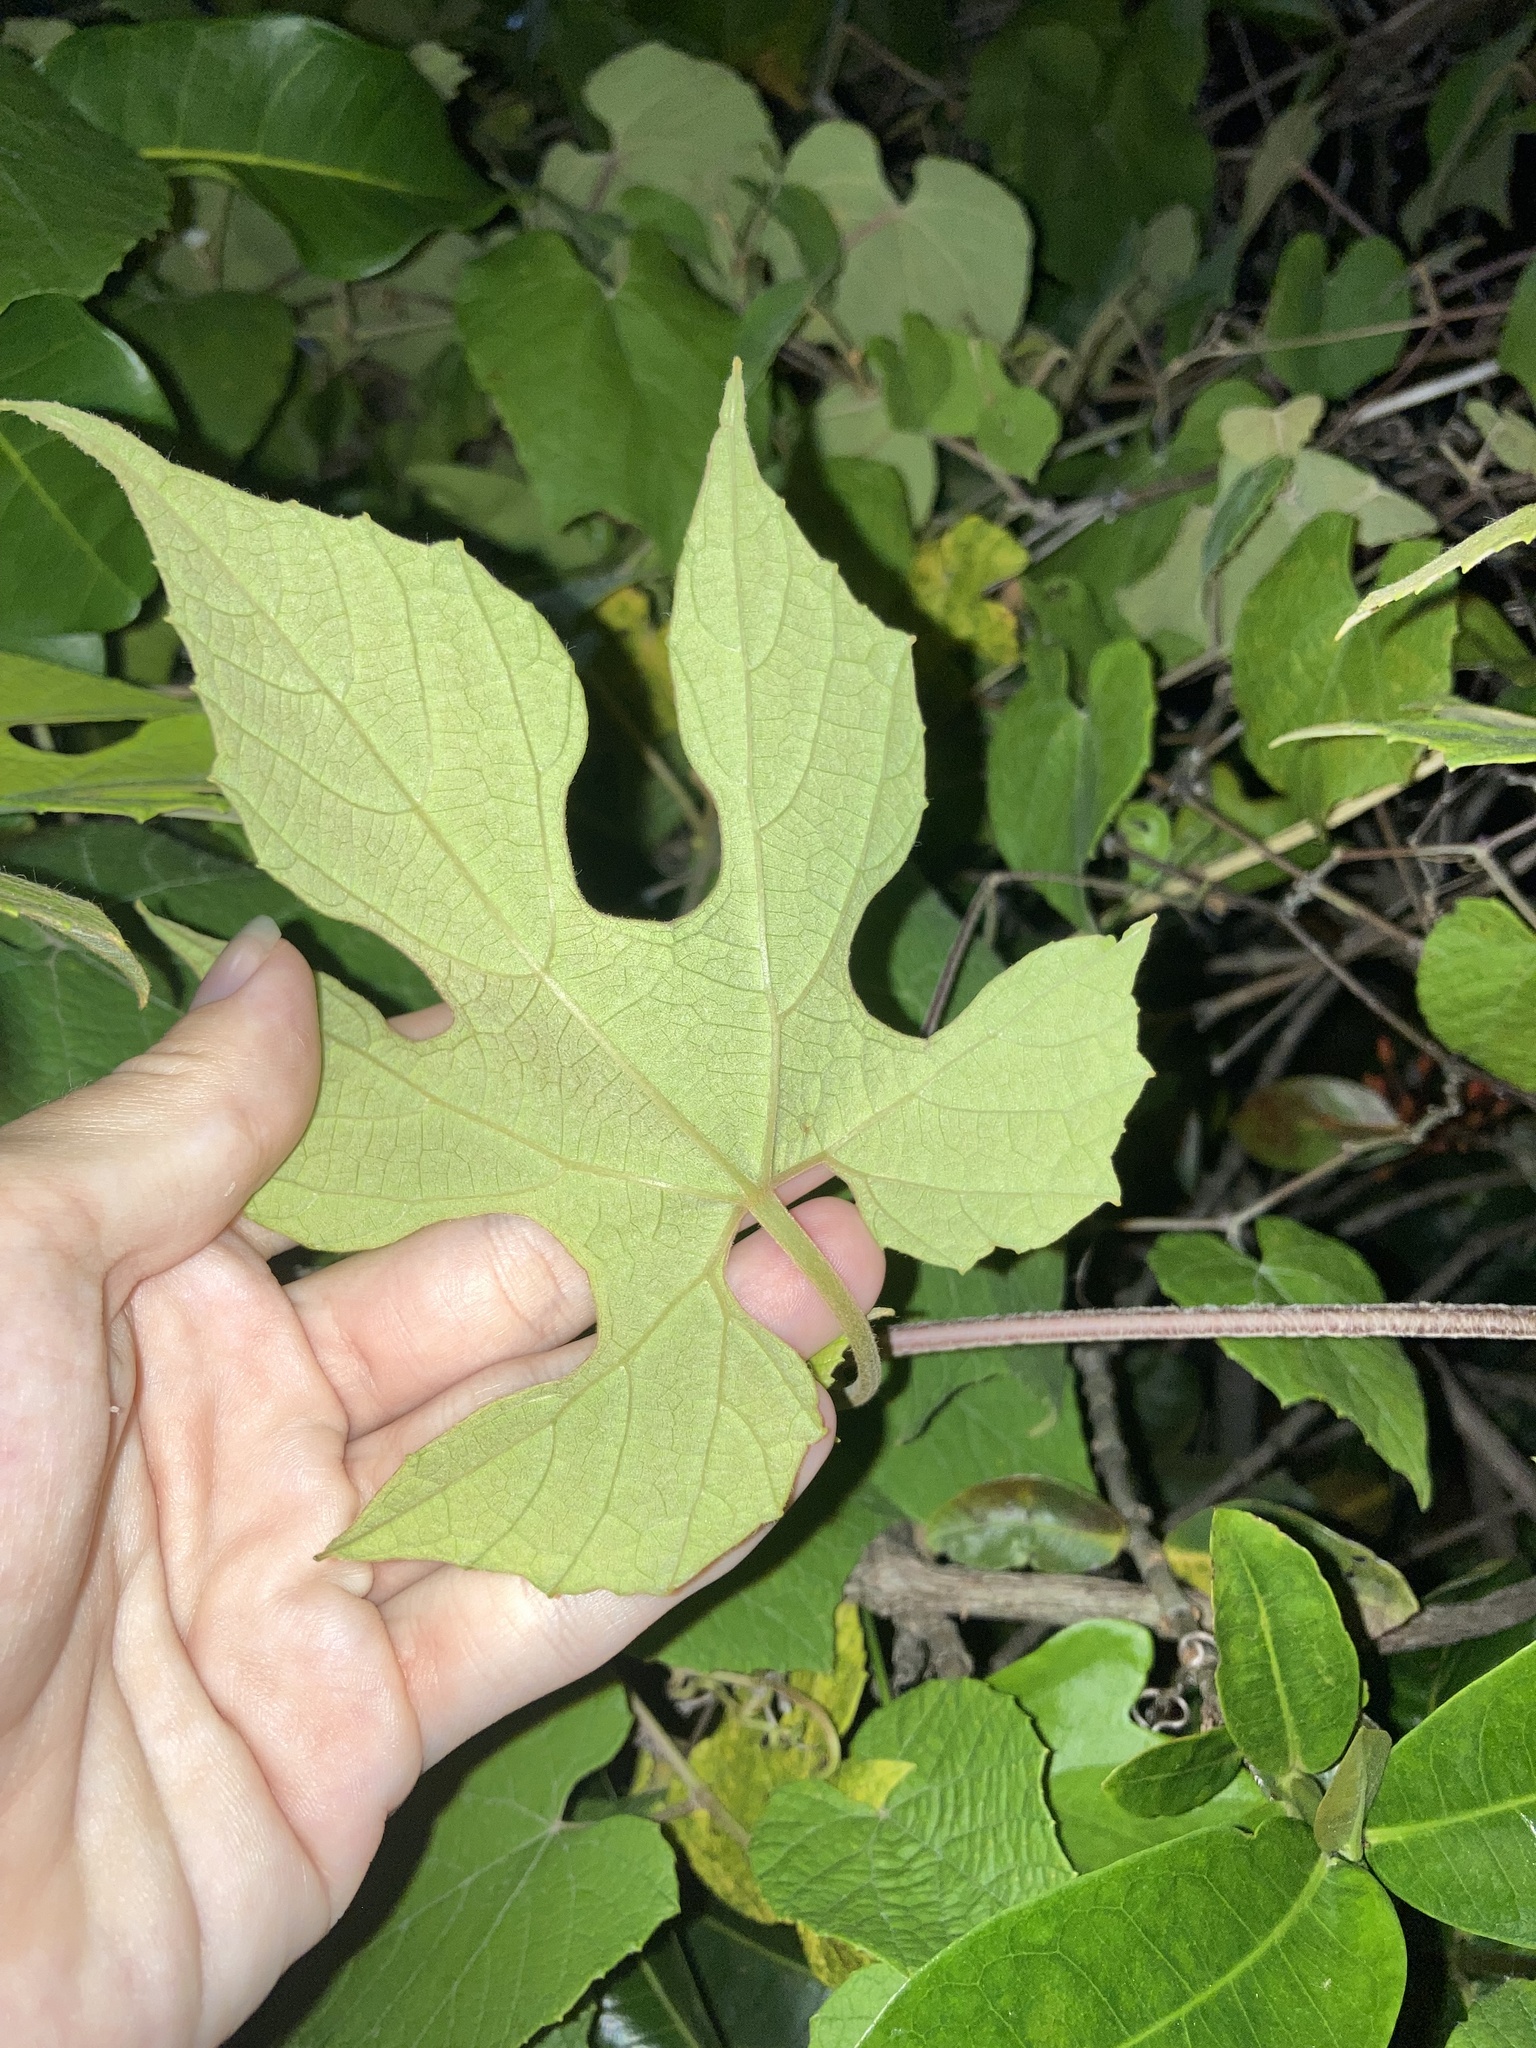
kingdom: Plantae
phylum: Tracheophyta
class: Magnoliopsida
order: Vitales
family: Vitaceae
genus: Vitis
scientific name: Vitis cinerea
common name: Ashy grape
